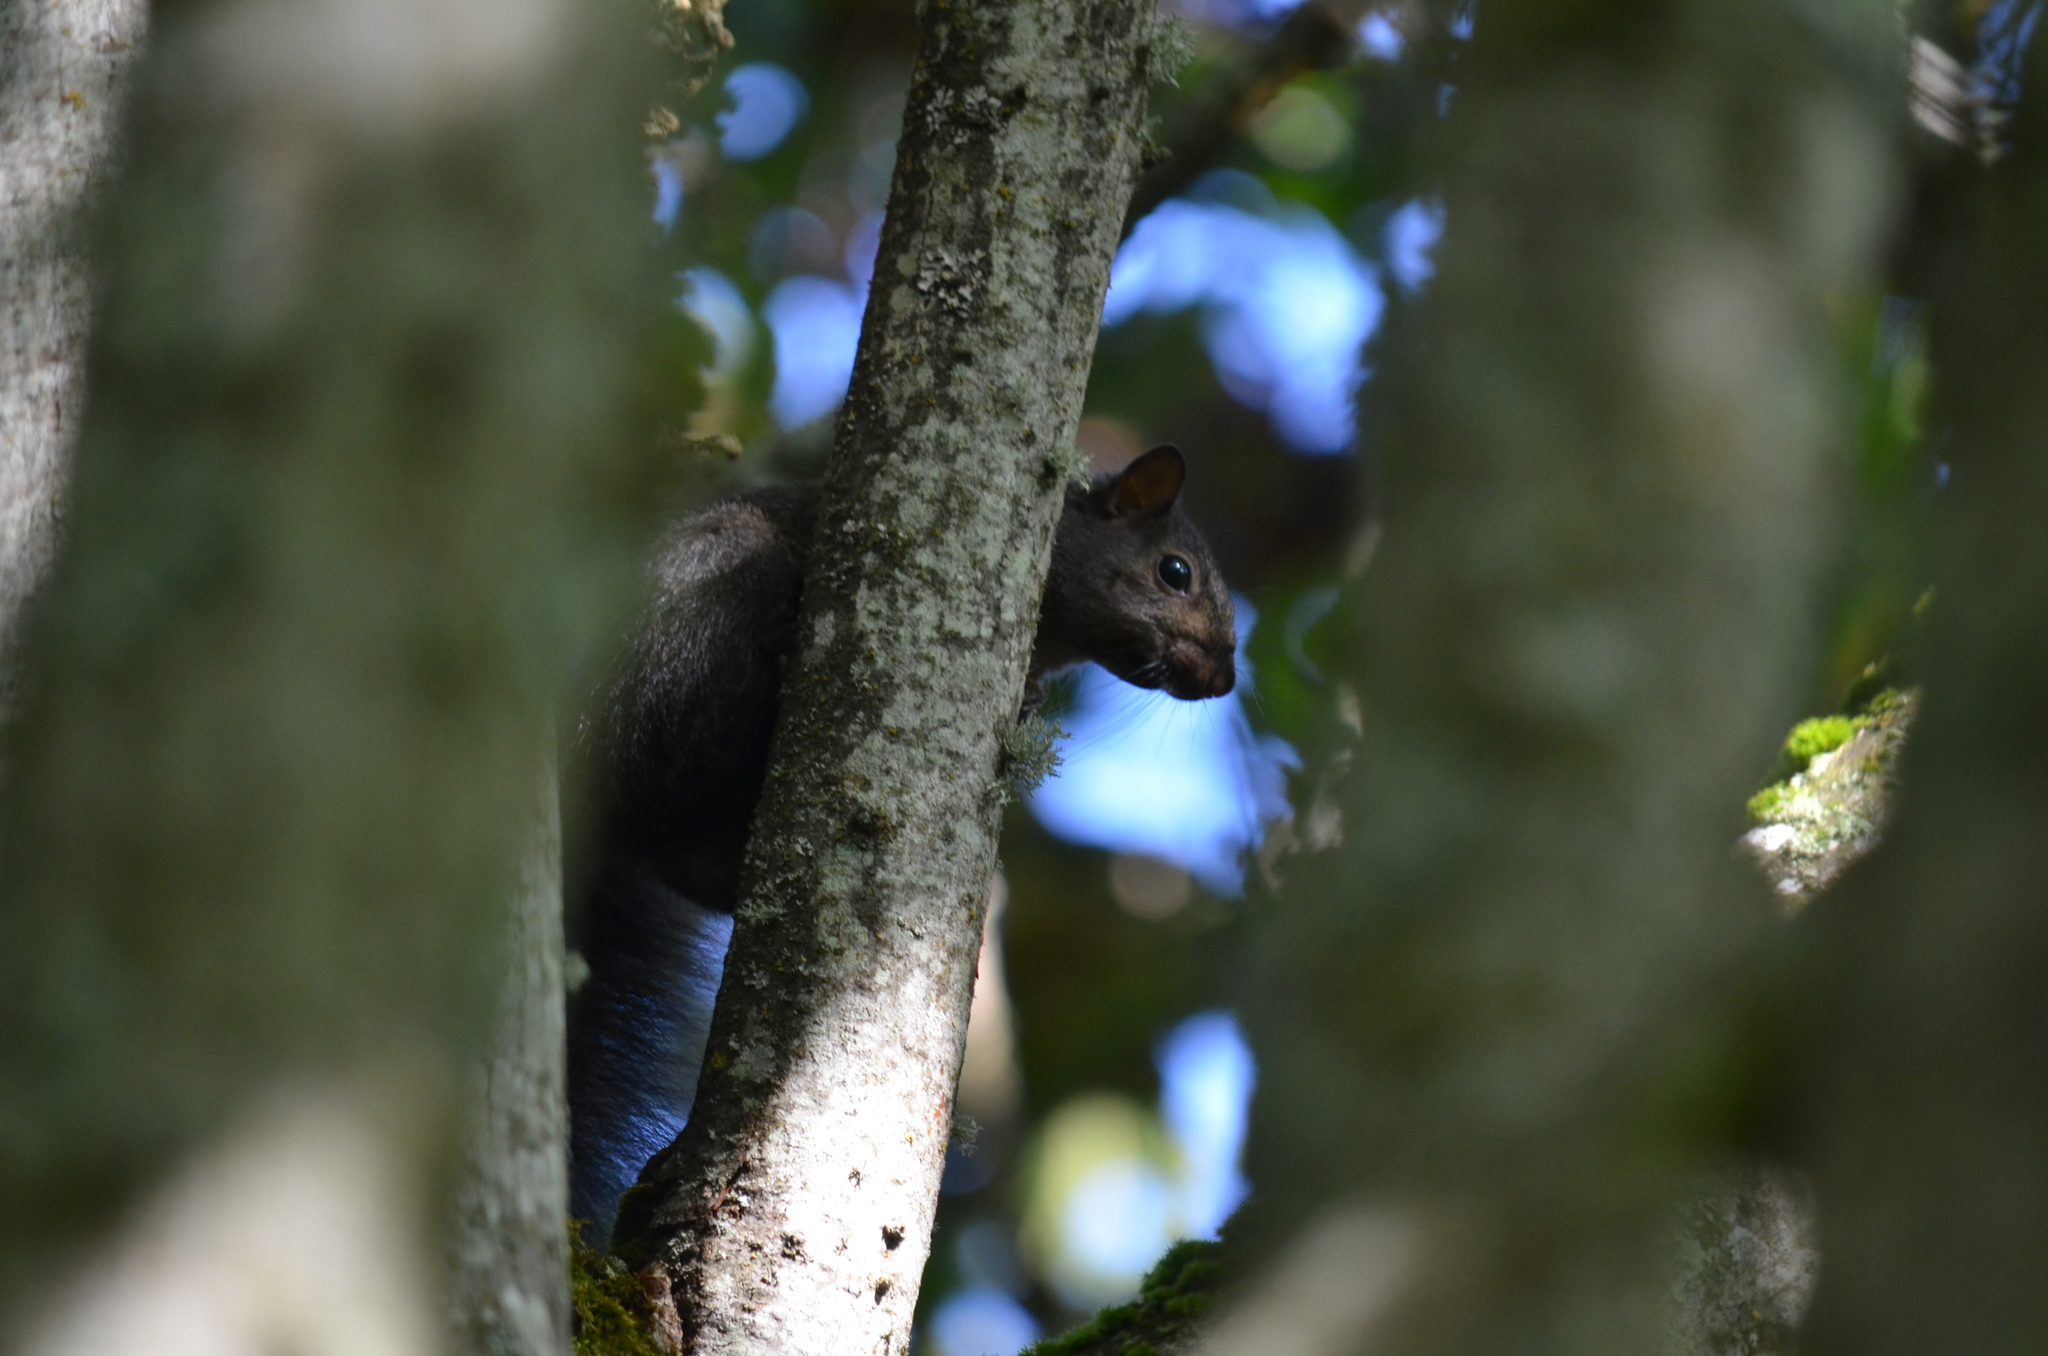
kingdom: Animalia
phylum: Chordata
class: Mammalia
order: Rodentia
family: Sciuridae
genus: Sciurus
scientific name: Sciurus carolinensis
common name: Eastern gray squirrel
